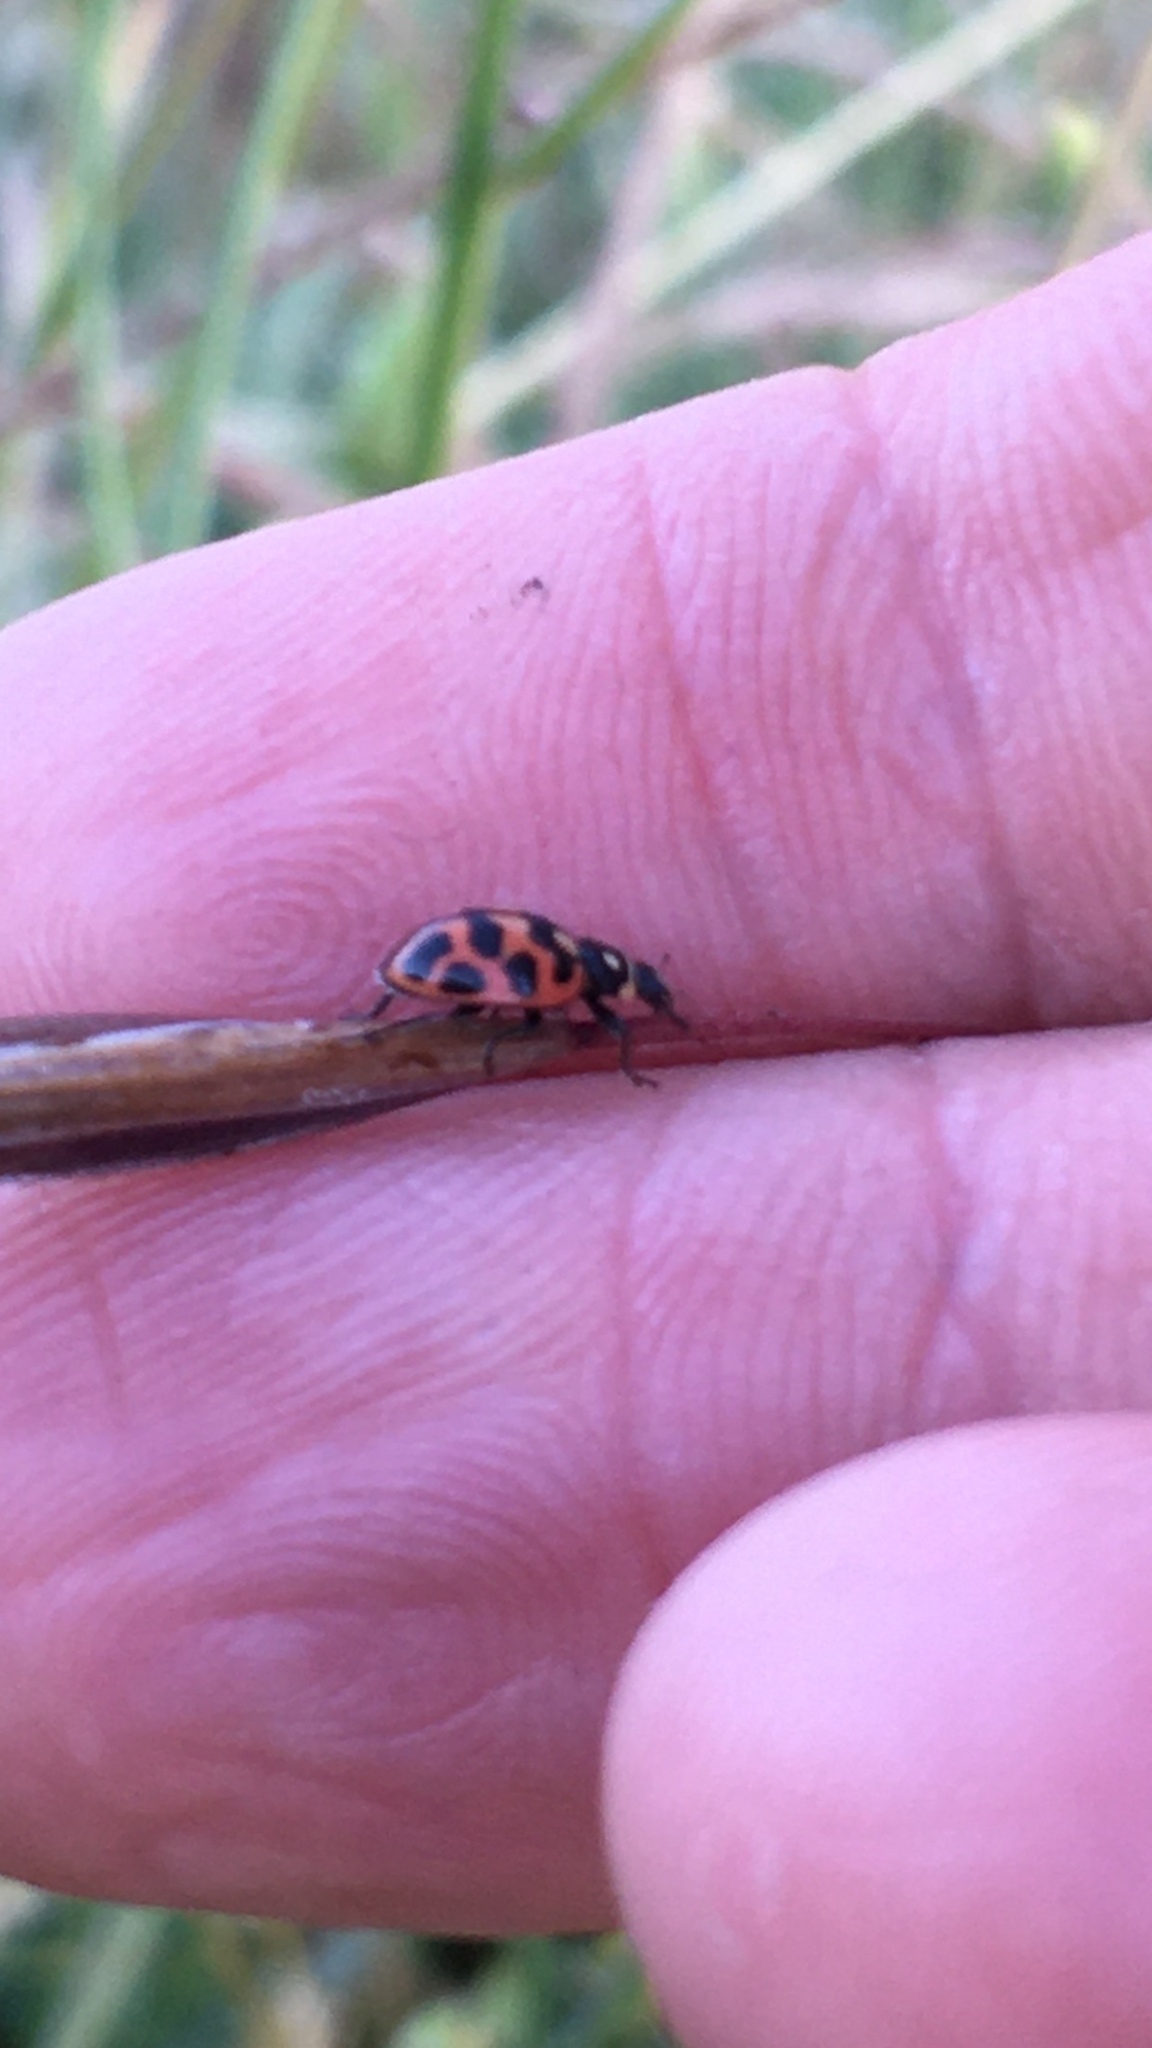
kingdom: Animalia
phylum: Arthropoda
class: Insecta
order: Coleoptera
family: Coccinellidae
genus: Lioadalia
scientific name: Lioadalia flavomaculata
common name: Ladybird beetle
